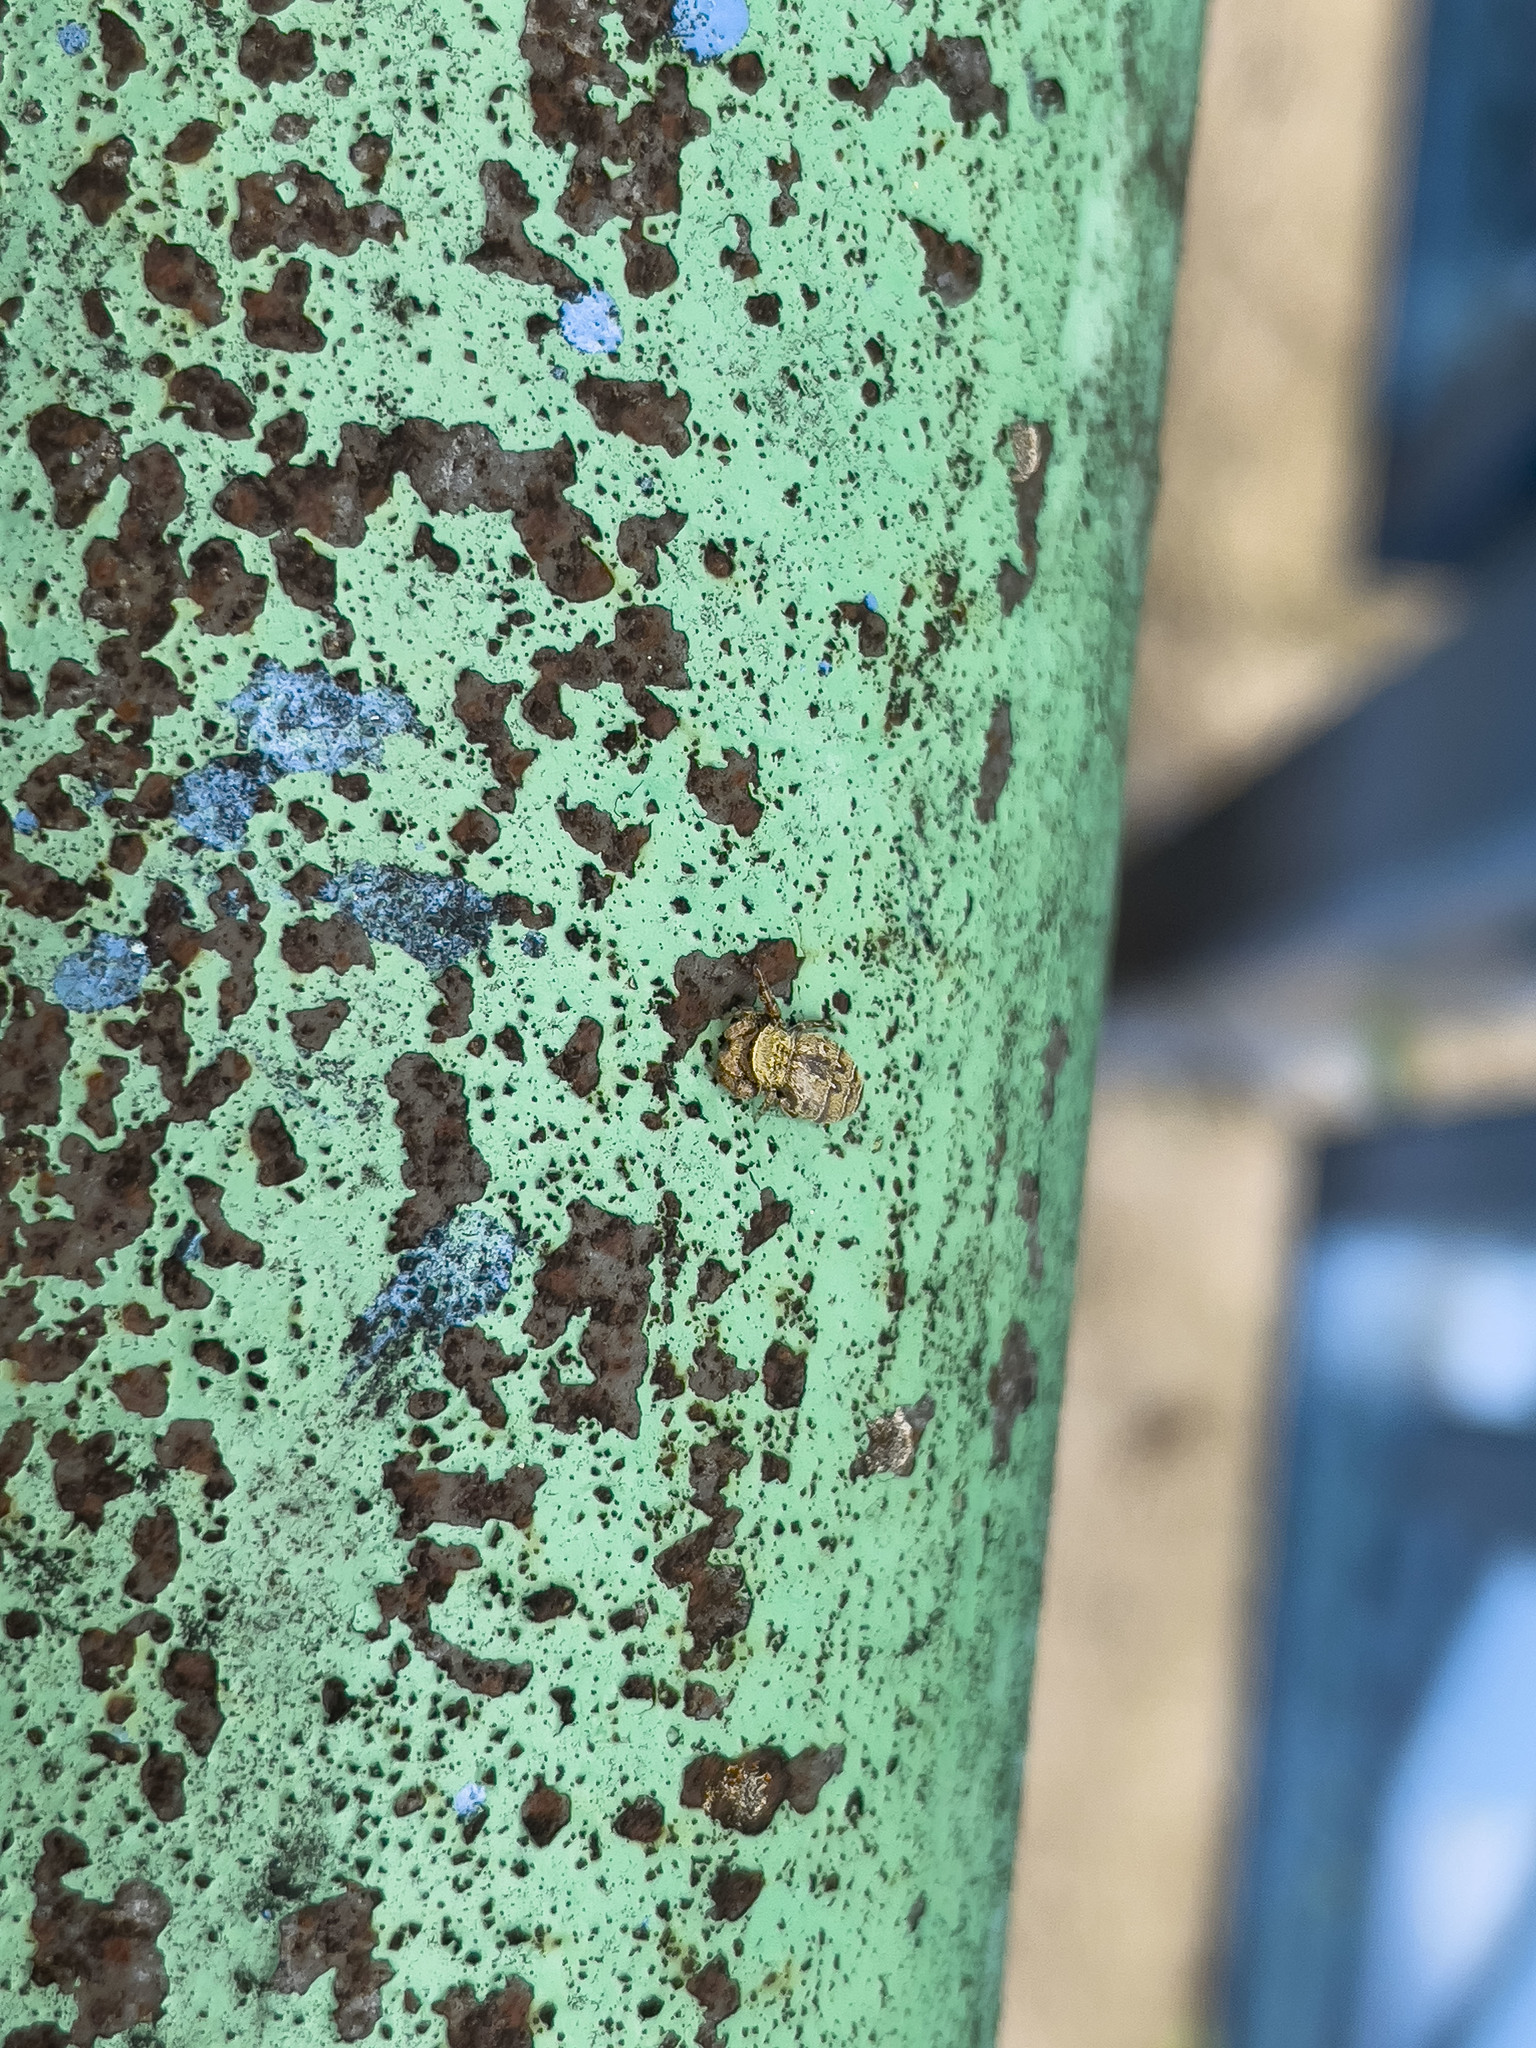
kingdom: Animalia
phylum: Arthropoda
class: Arachnida
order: Araneae
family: Salticidae
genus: Rhene
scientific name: Rhene flavicomans
